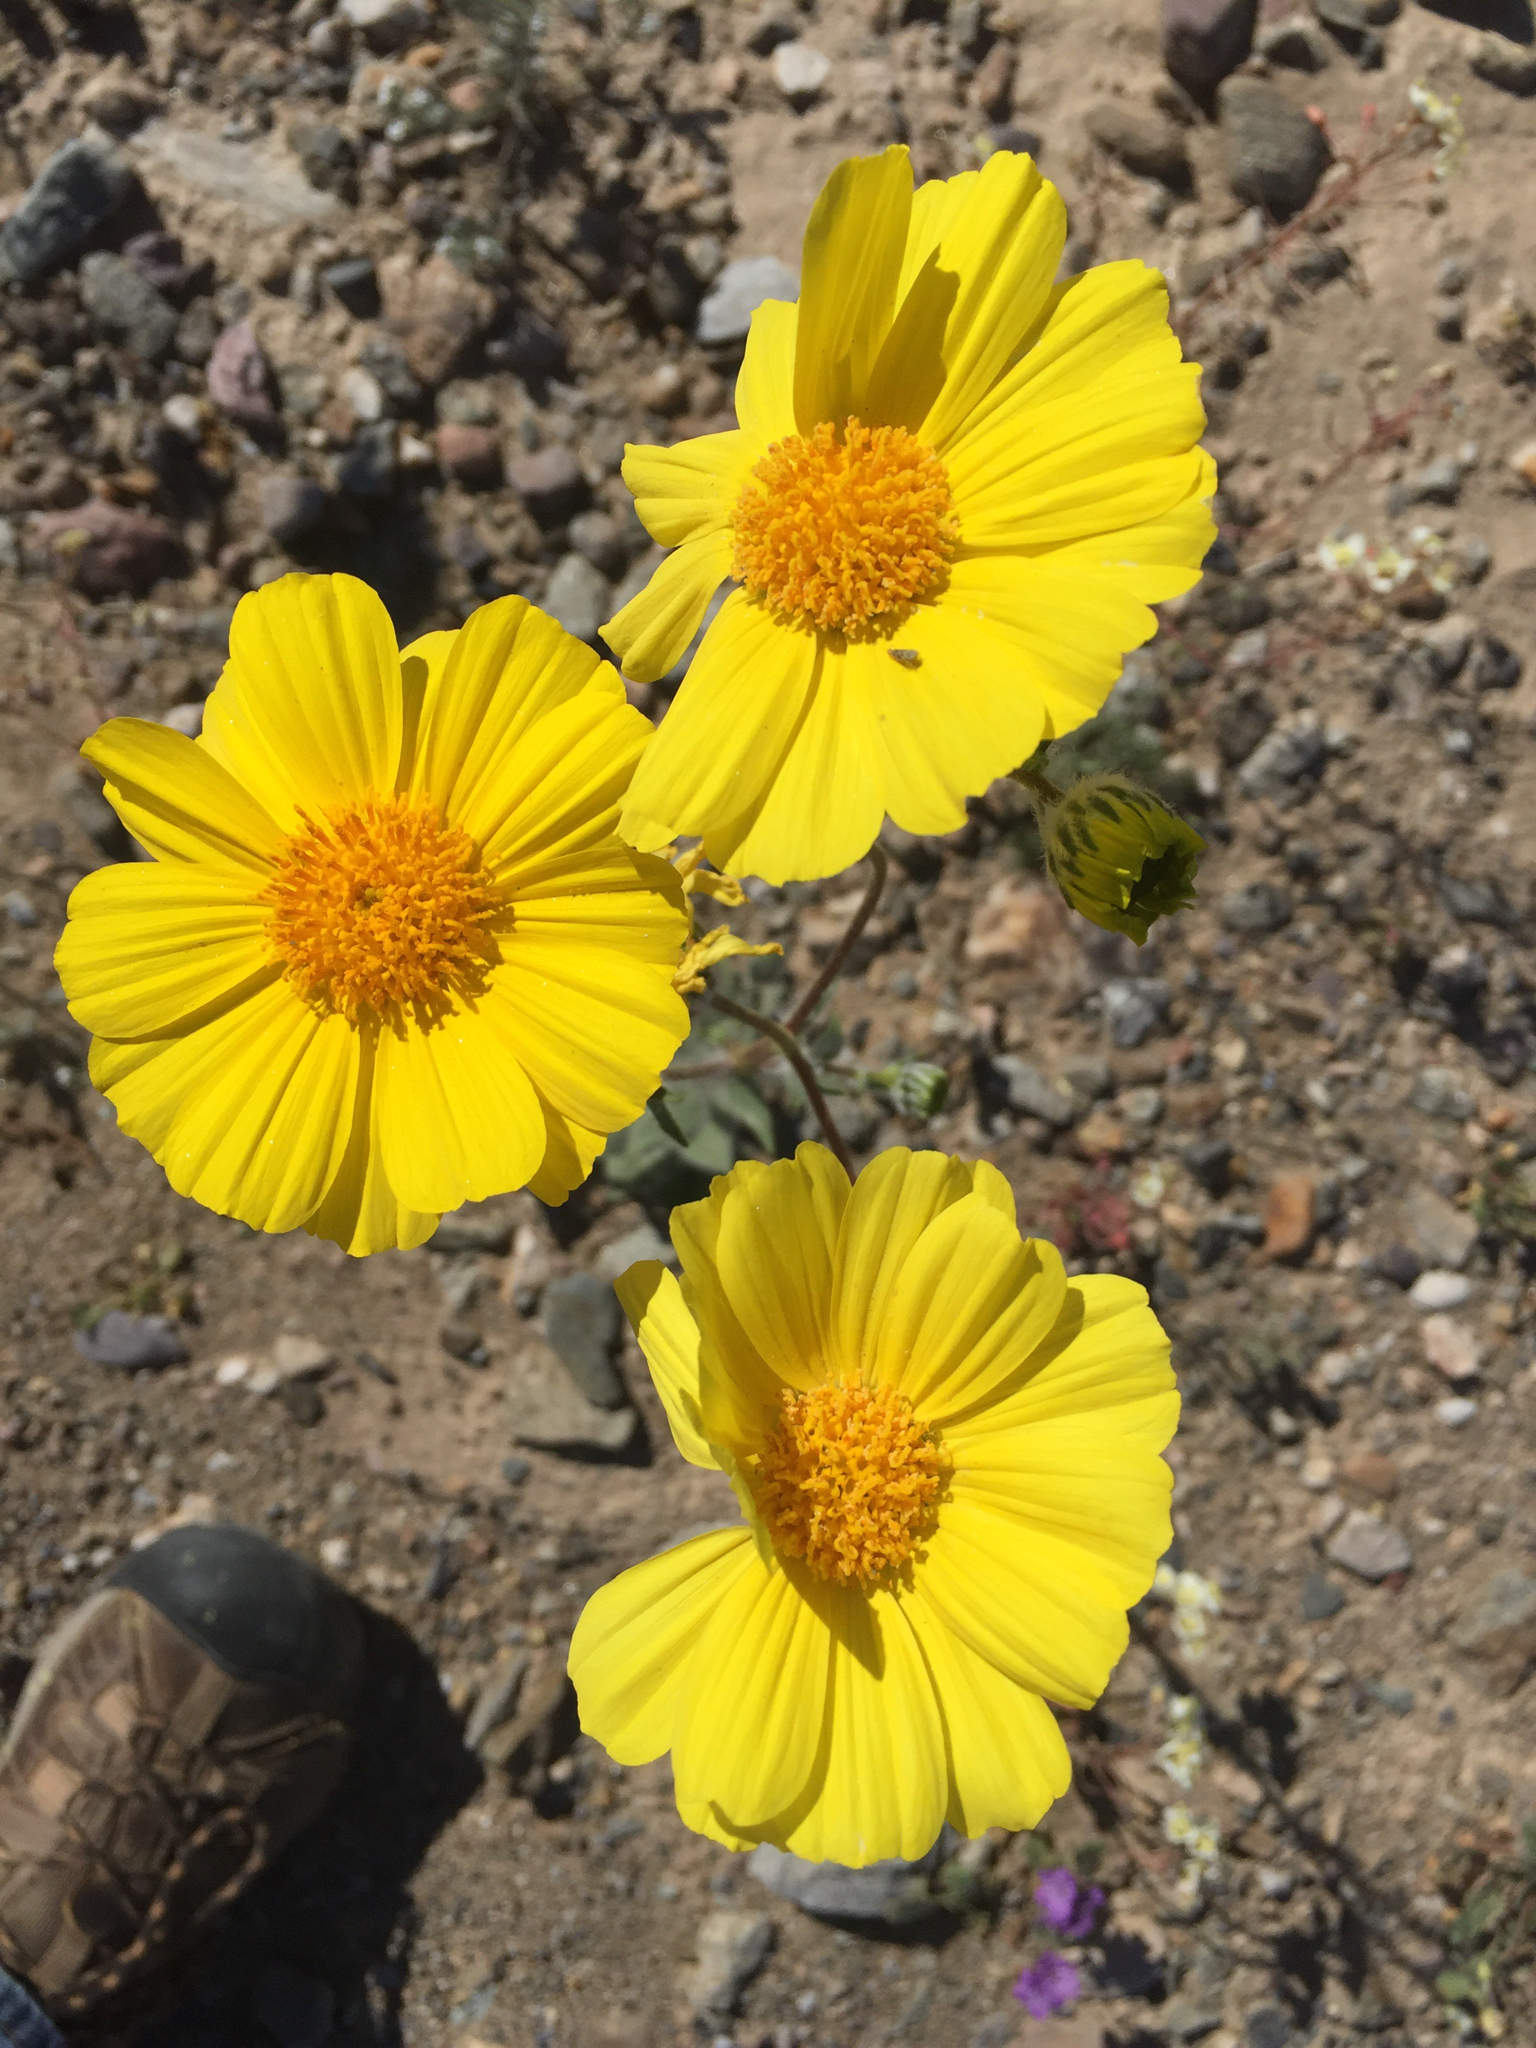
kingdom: Plantae
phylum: Tracheophyta
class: Magnoliopsida
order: Asterales
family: Asteraceae
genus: Geraea
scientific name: Geraea canescens
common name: Desert-gold
